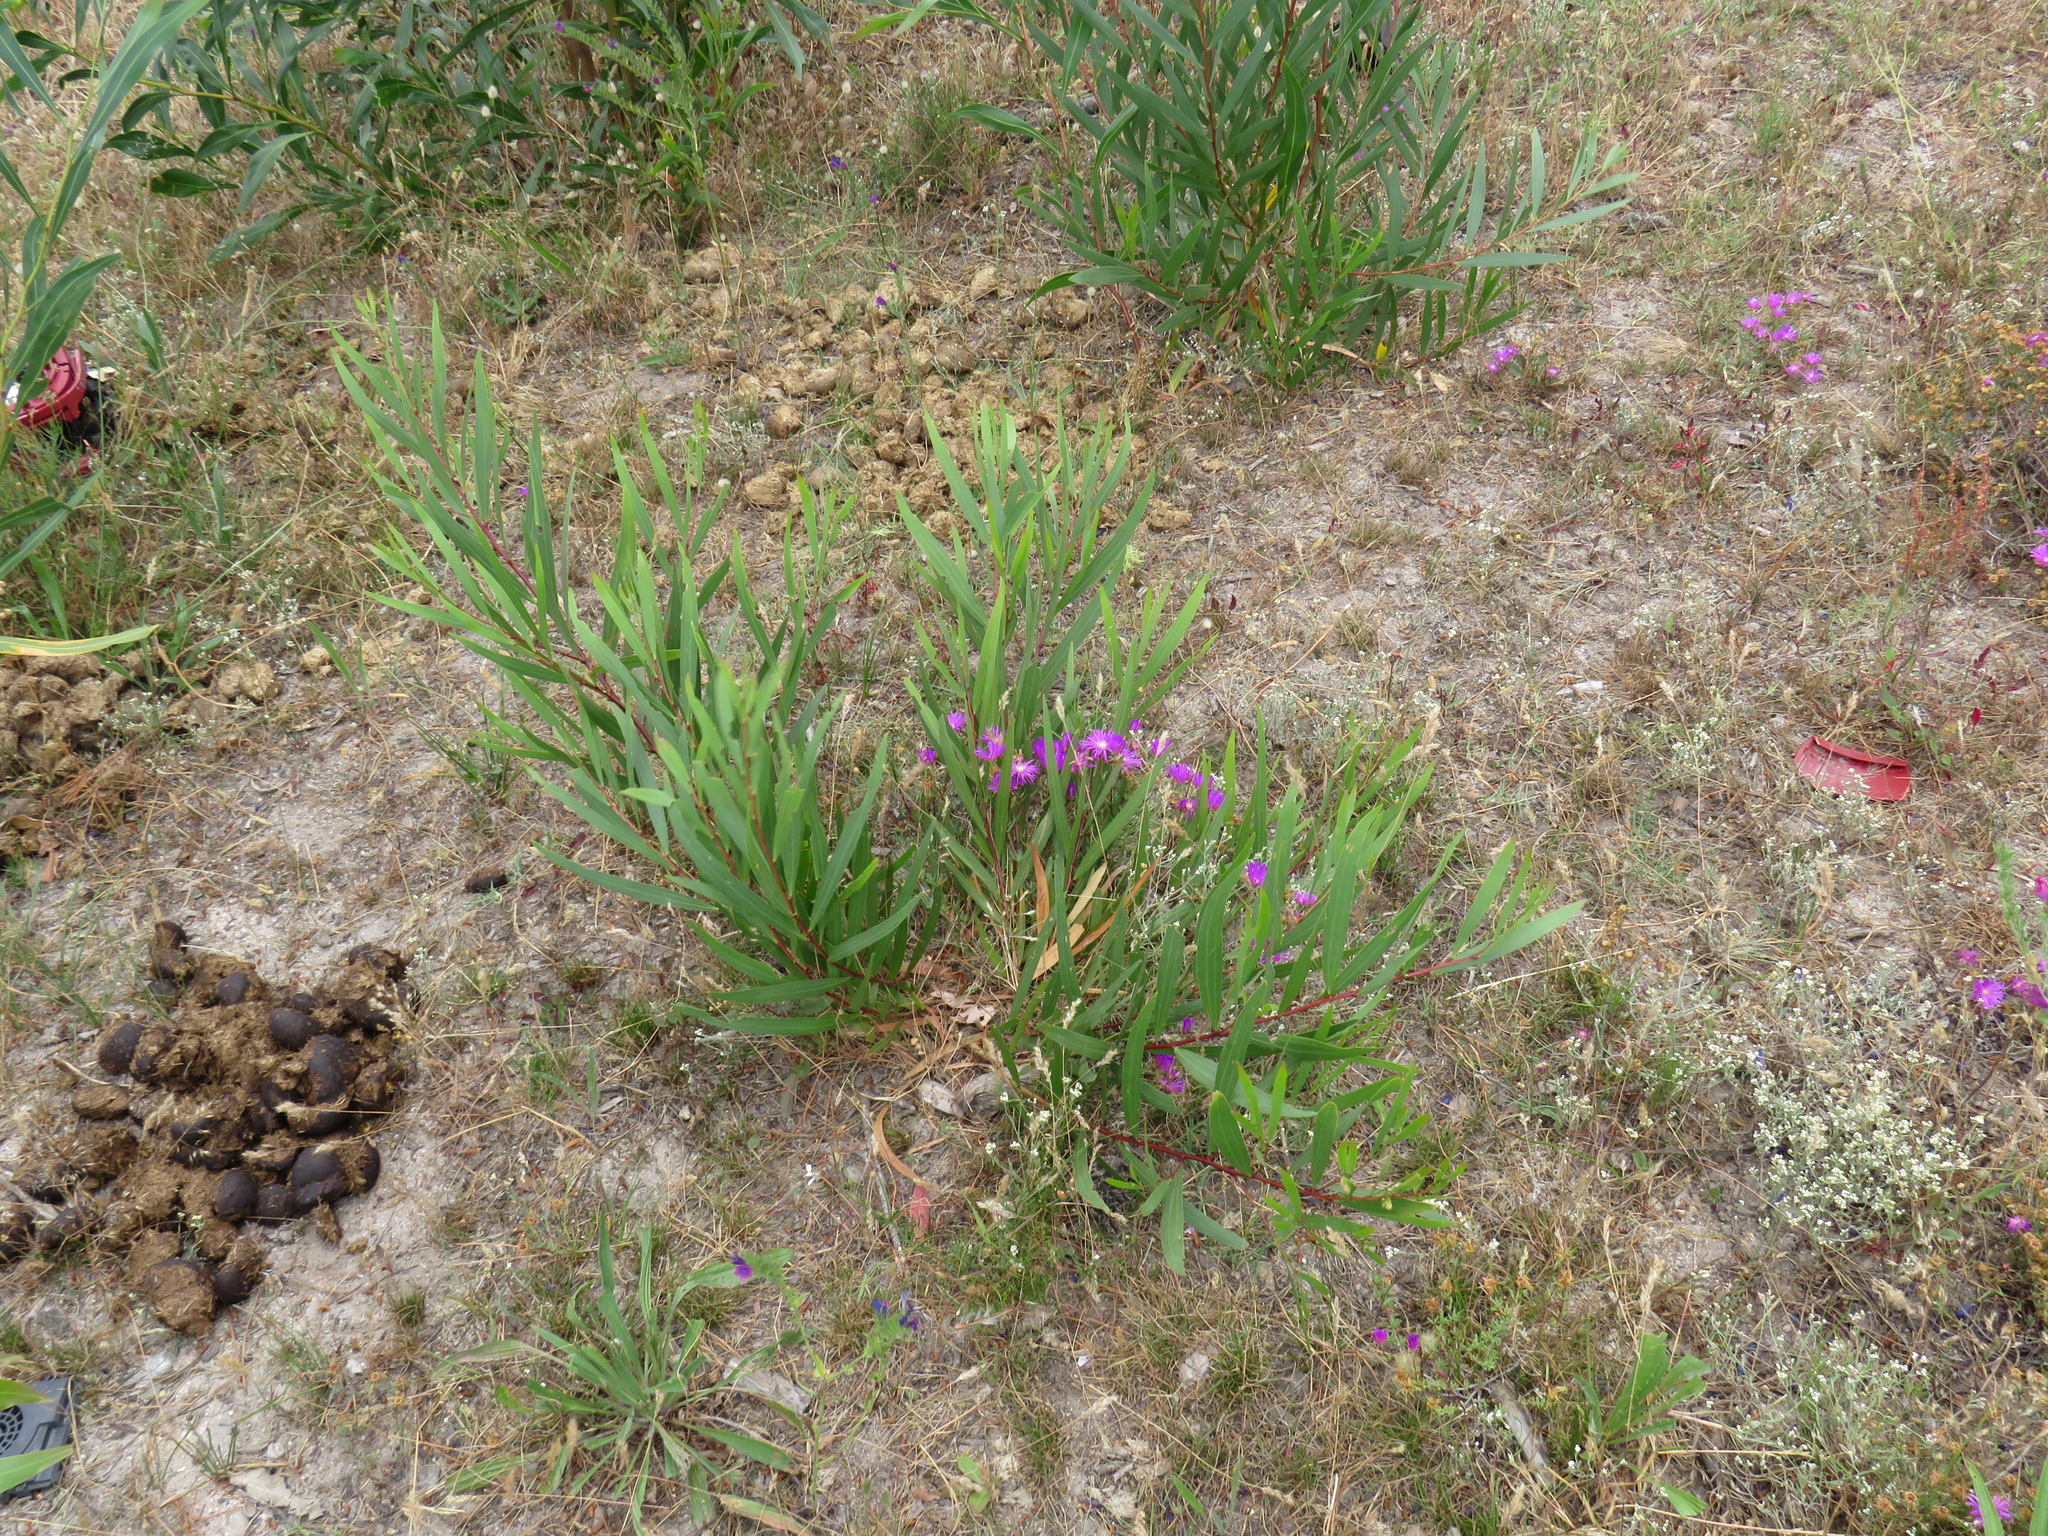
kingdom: Plantae
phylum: Tracheophyta
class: Magnoliopsida
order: Fabales
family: Fabaceae
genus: Acacia
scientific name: Acacia longifolia
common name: Sydney golden wattle
